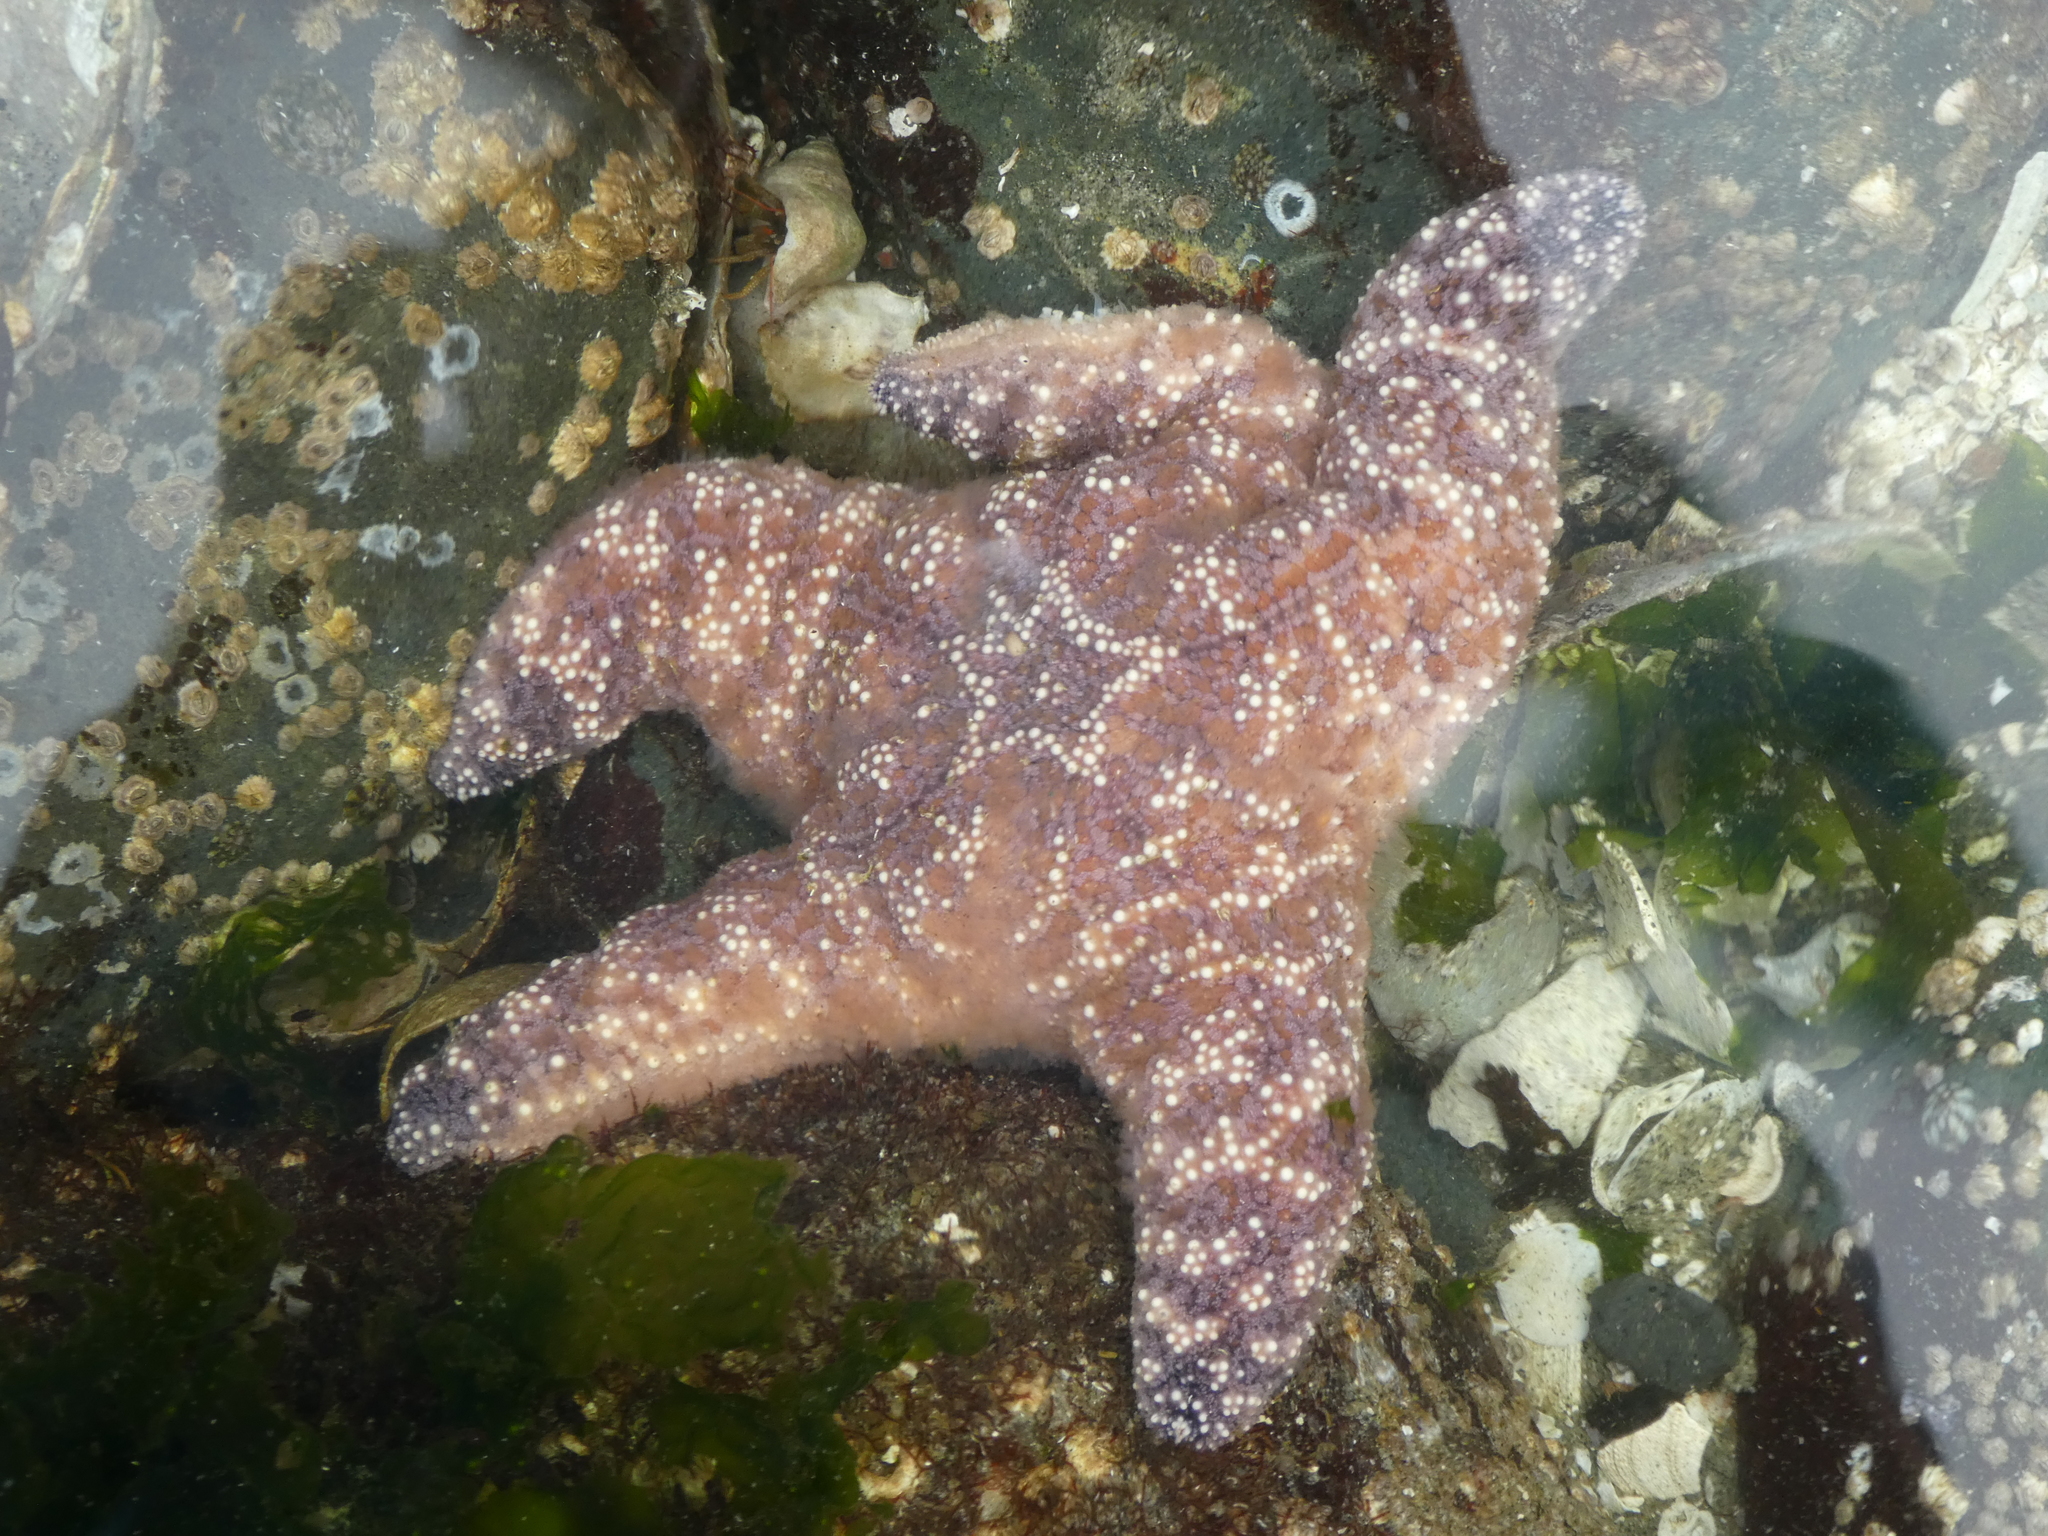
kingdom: Animalia
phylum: Echinodermata
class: Asteroidea
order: Forcipulatida
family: Asteriidae
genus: Pisaster
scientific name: Pisaster ochraceus
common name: Ochre stars
